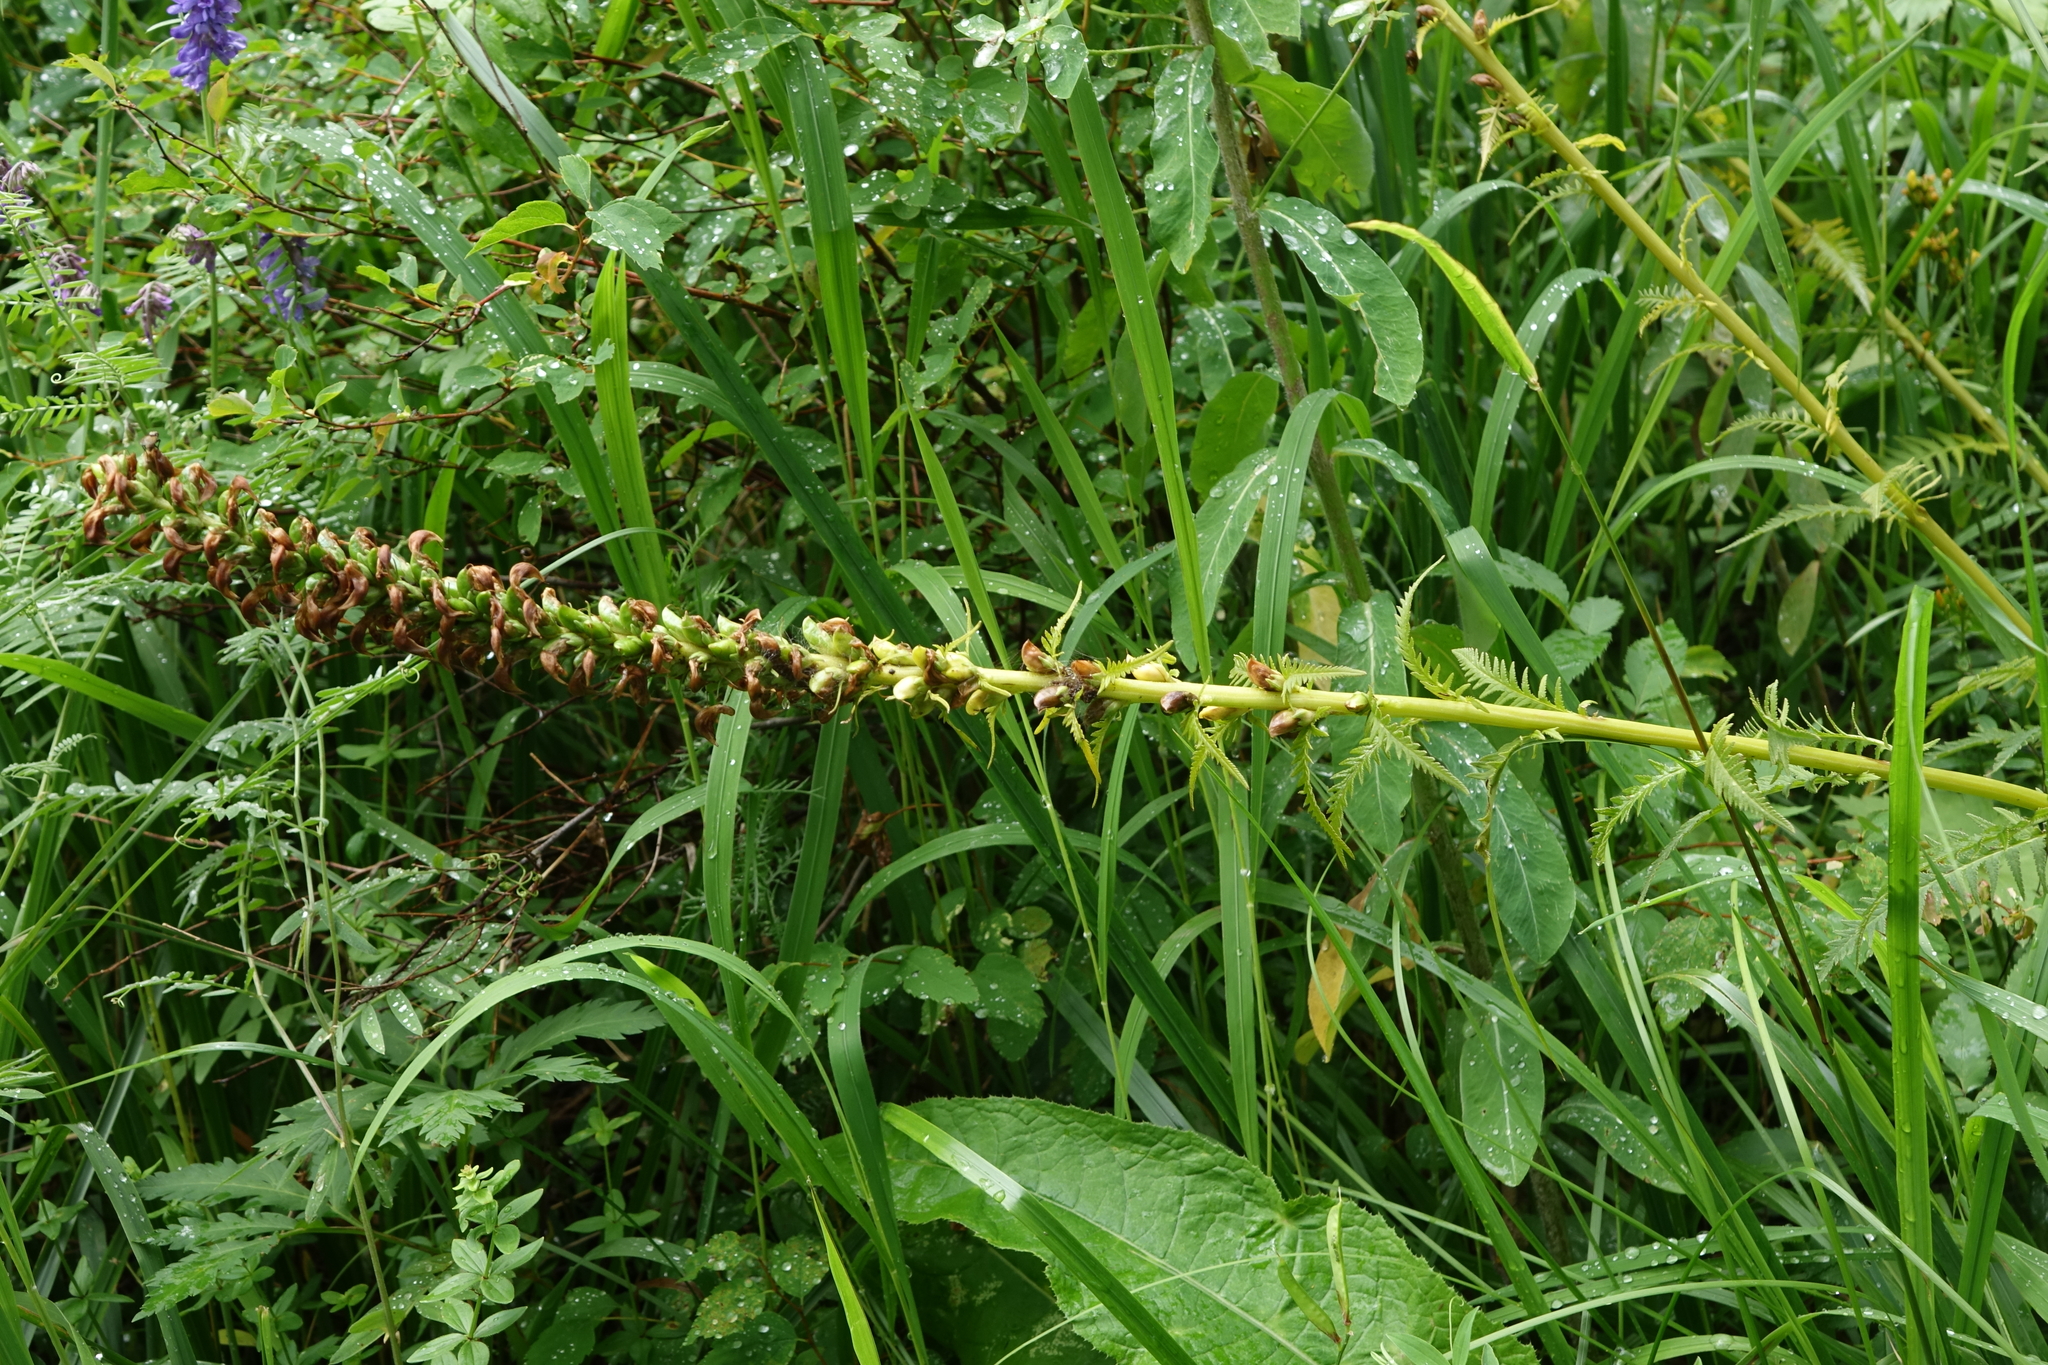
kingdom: Plantae
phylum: Tracheophyta
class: Magnoliopsida
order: Lamiales
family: Orobanchaceae
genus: Pedicularis
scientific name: Pedicularis incarnata
